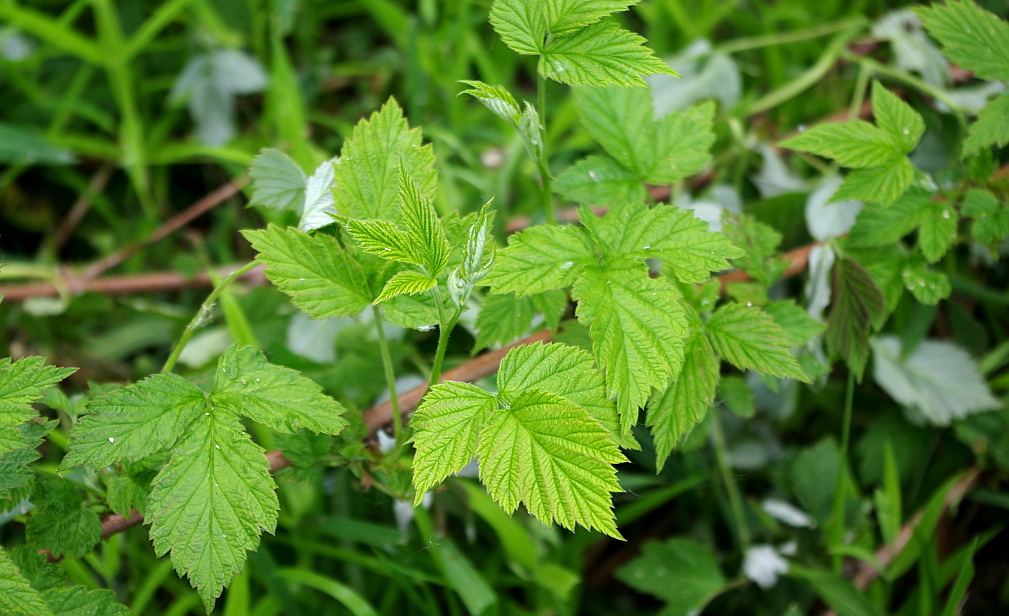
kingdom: Plantae
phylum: Tracheophyta
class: Magnoliopsida
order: Rosales
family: Rosaceae
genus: Rubus
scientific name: Rubus idaeus
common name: Raspberry
